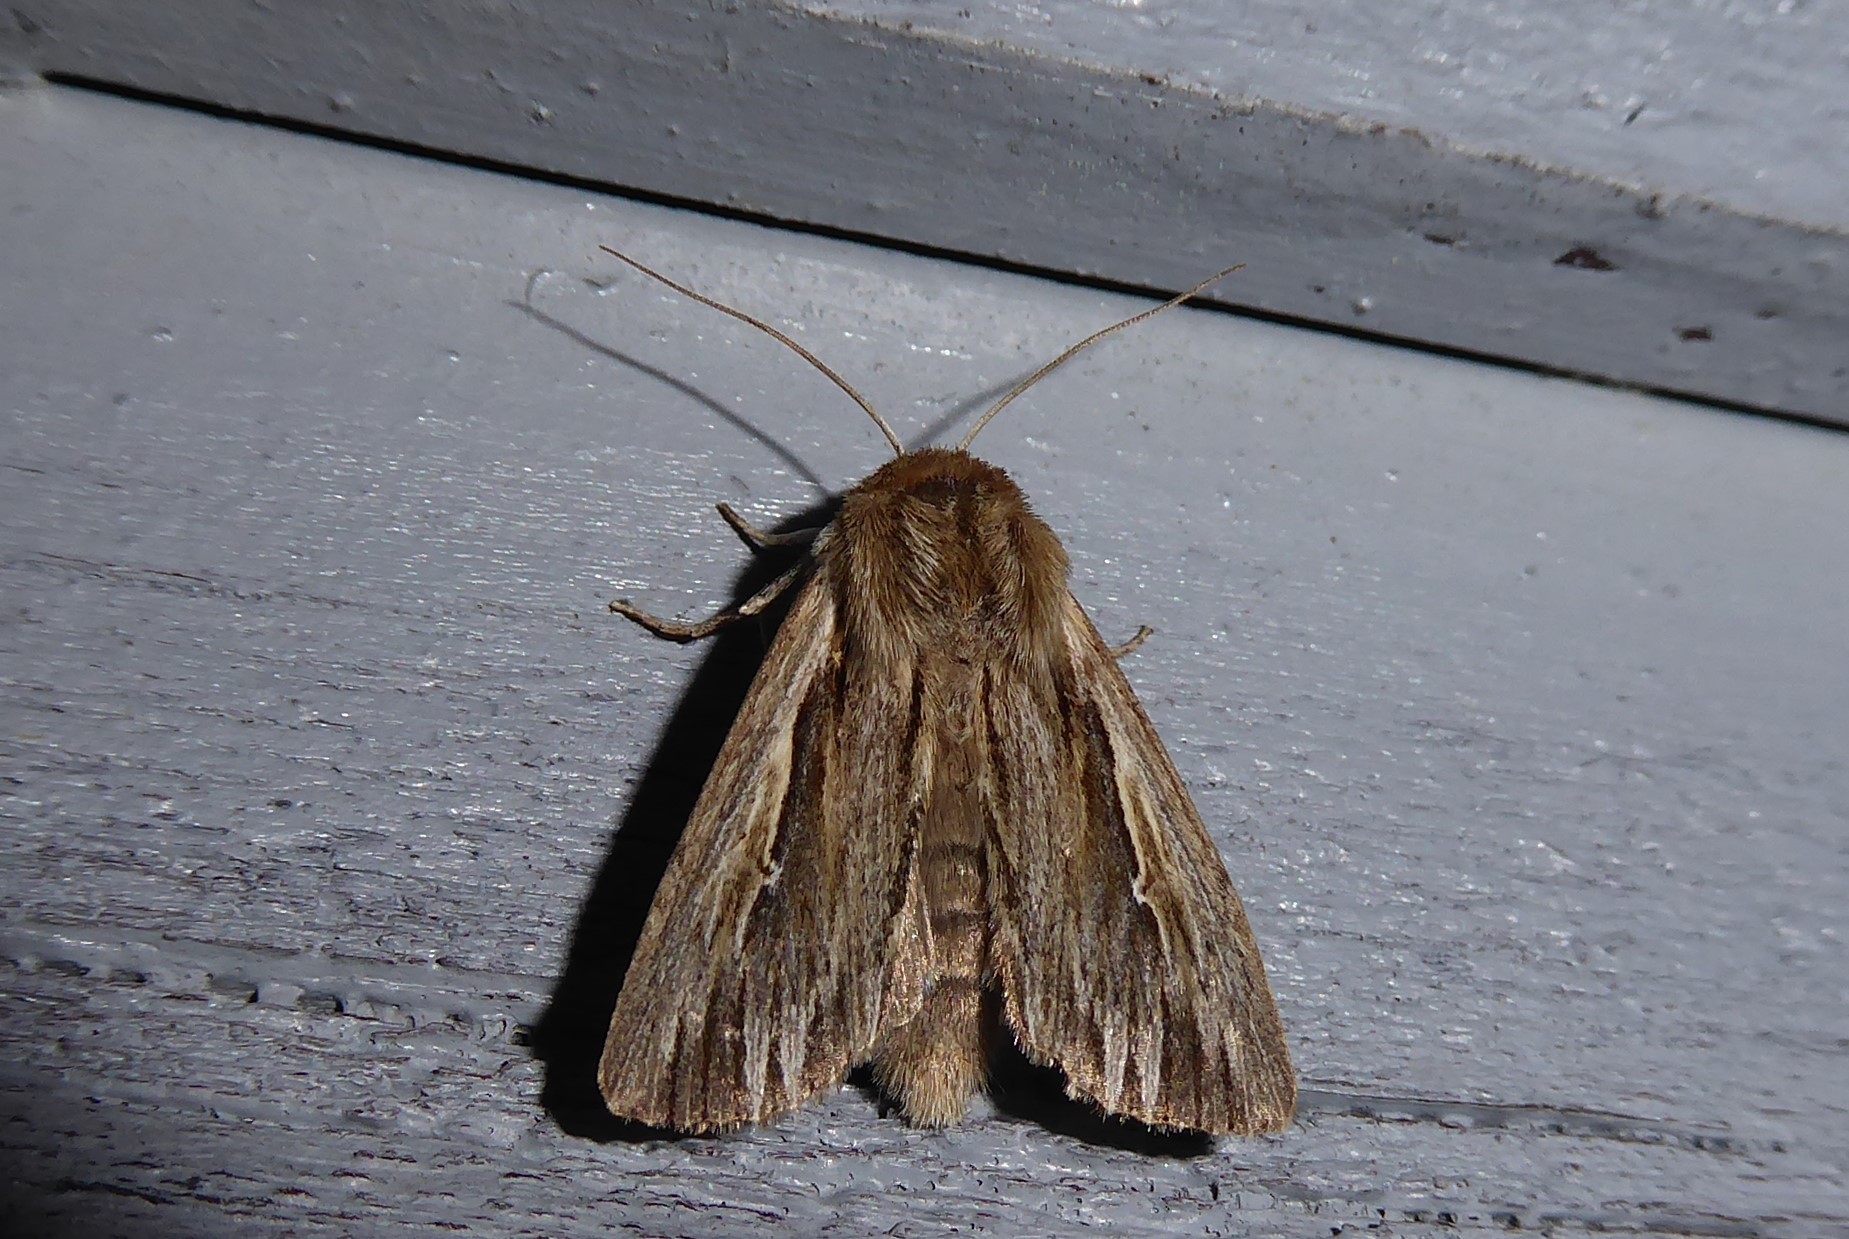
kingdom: Animalia
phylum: Arthropoda
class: Insecta
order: Lepidoptera
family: Noctuidae
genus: Persectania
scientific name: Persectania aversa
